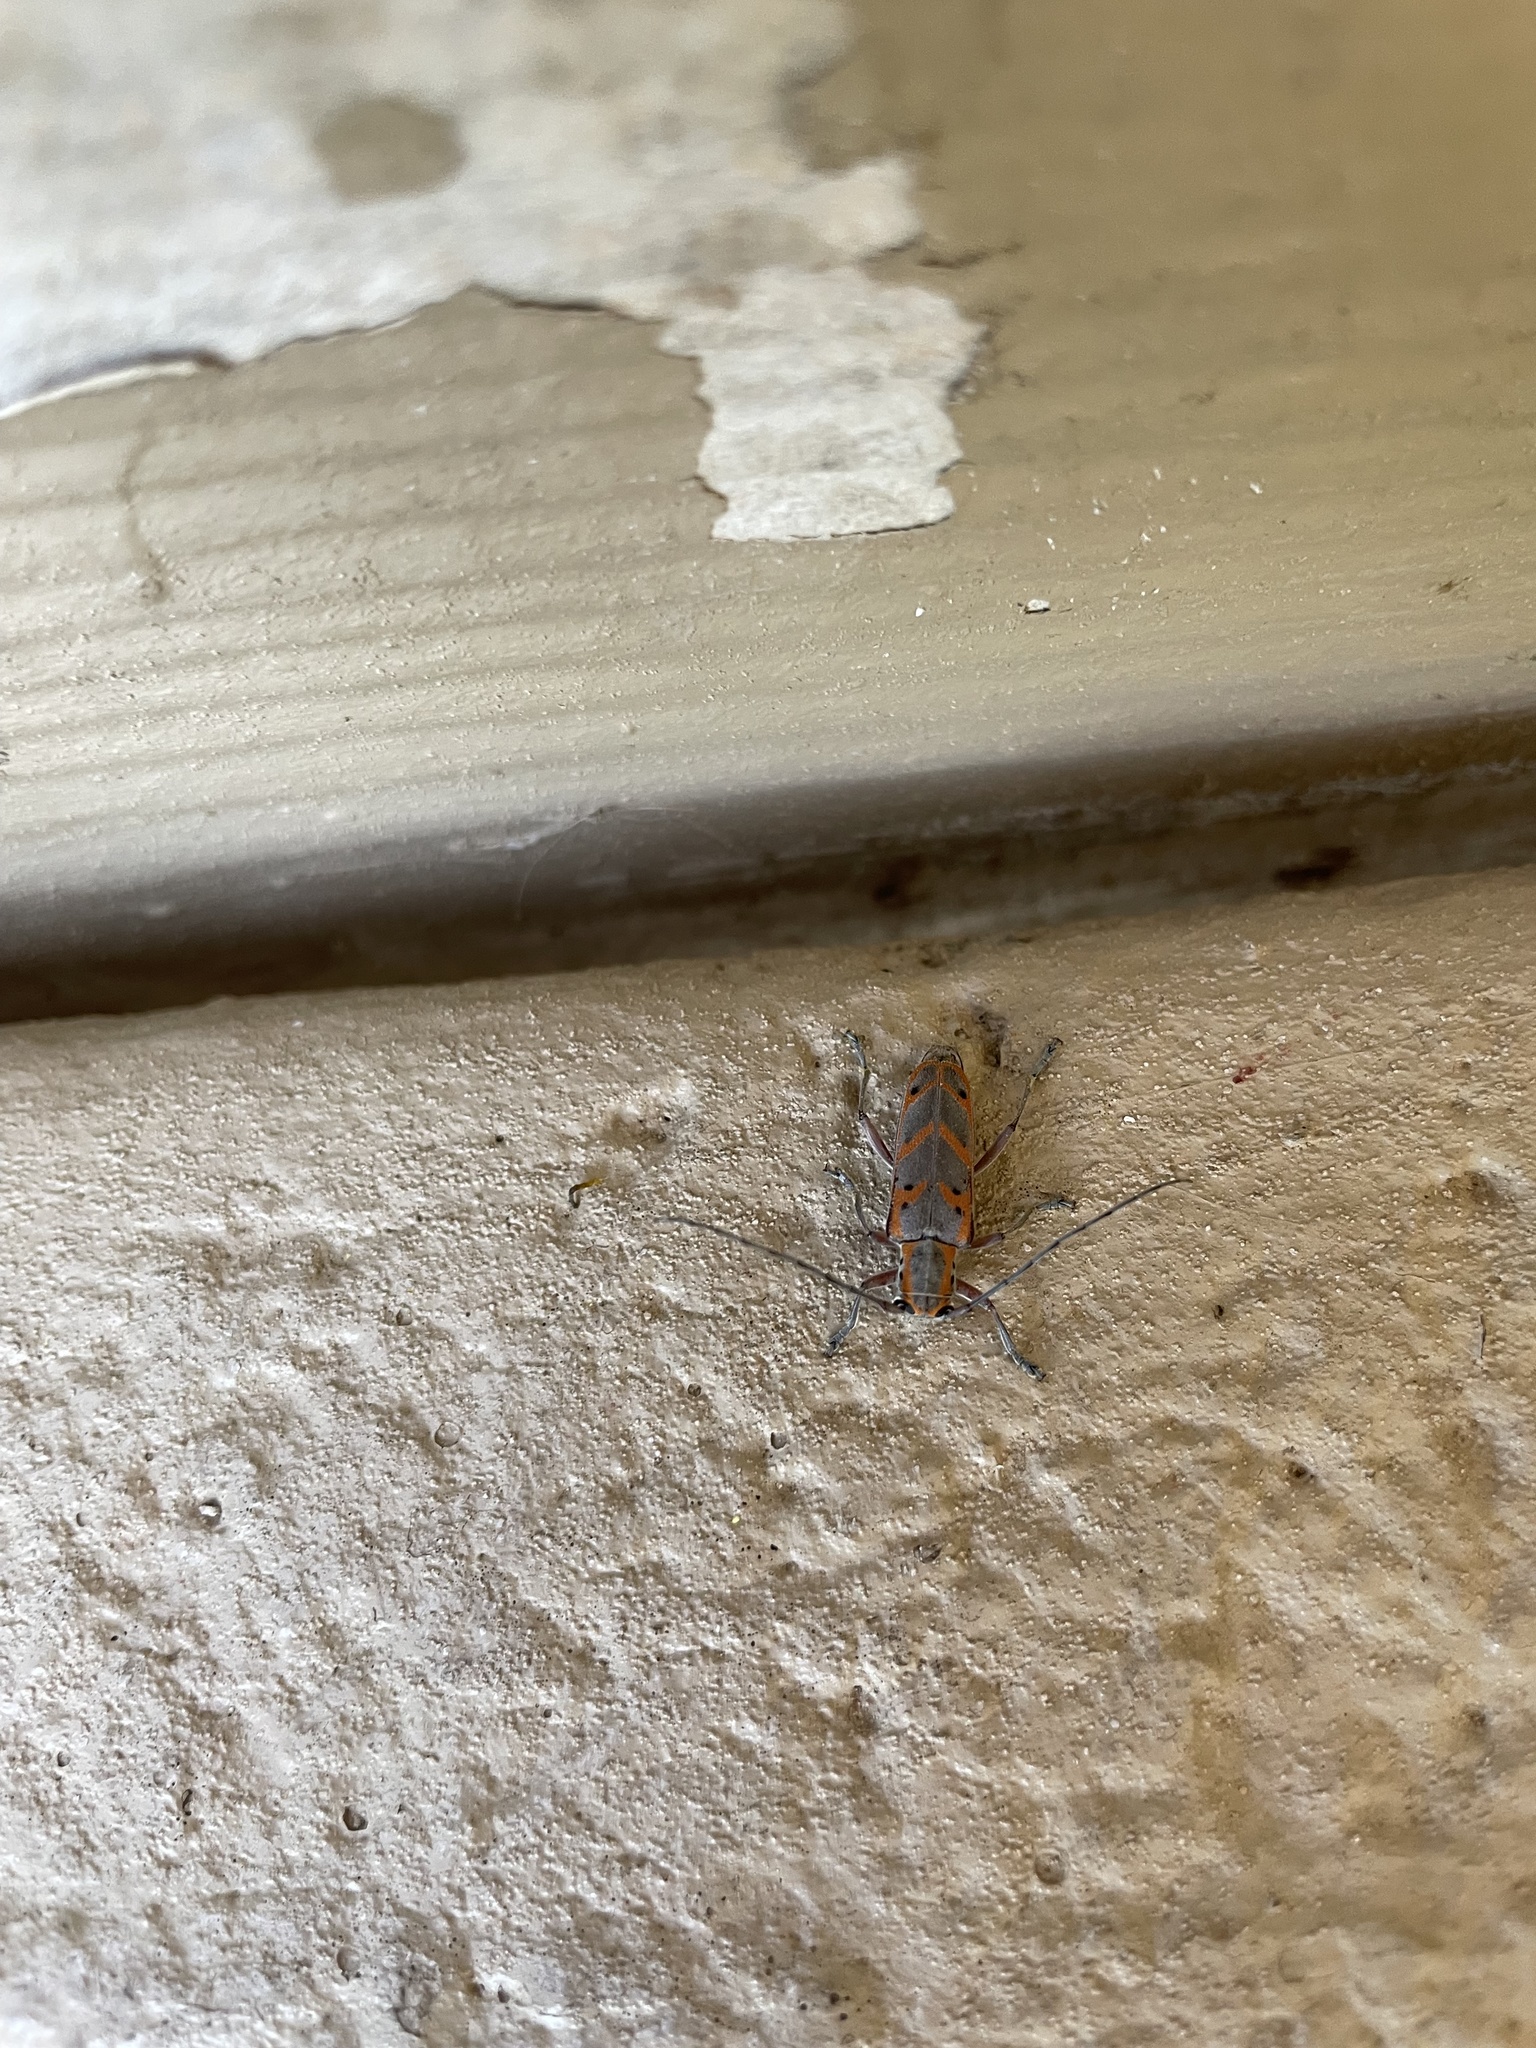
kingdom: Animalia
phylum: Arthropoda
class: Insecta
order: Coleoptera
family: Cerambycidae
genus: Saperda
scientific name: Saperda tridentata
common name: Elm borer
